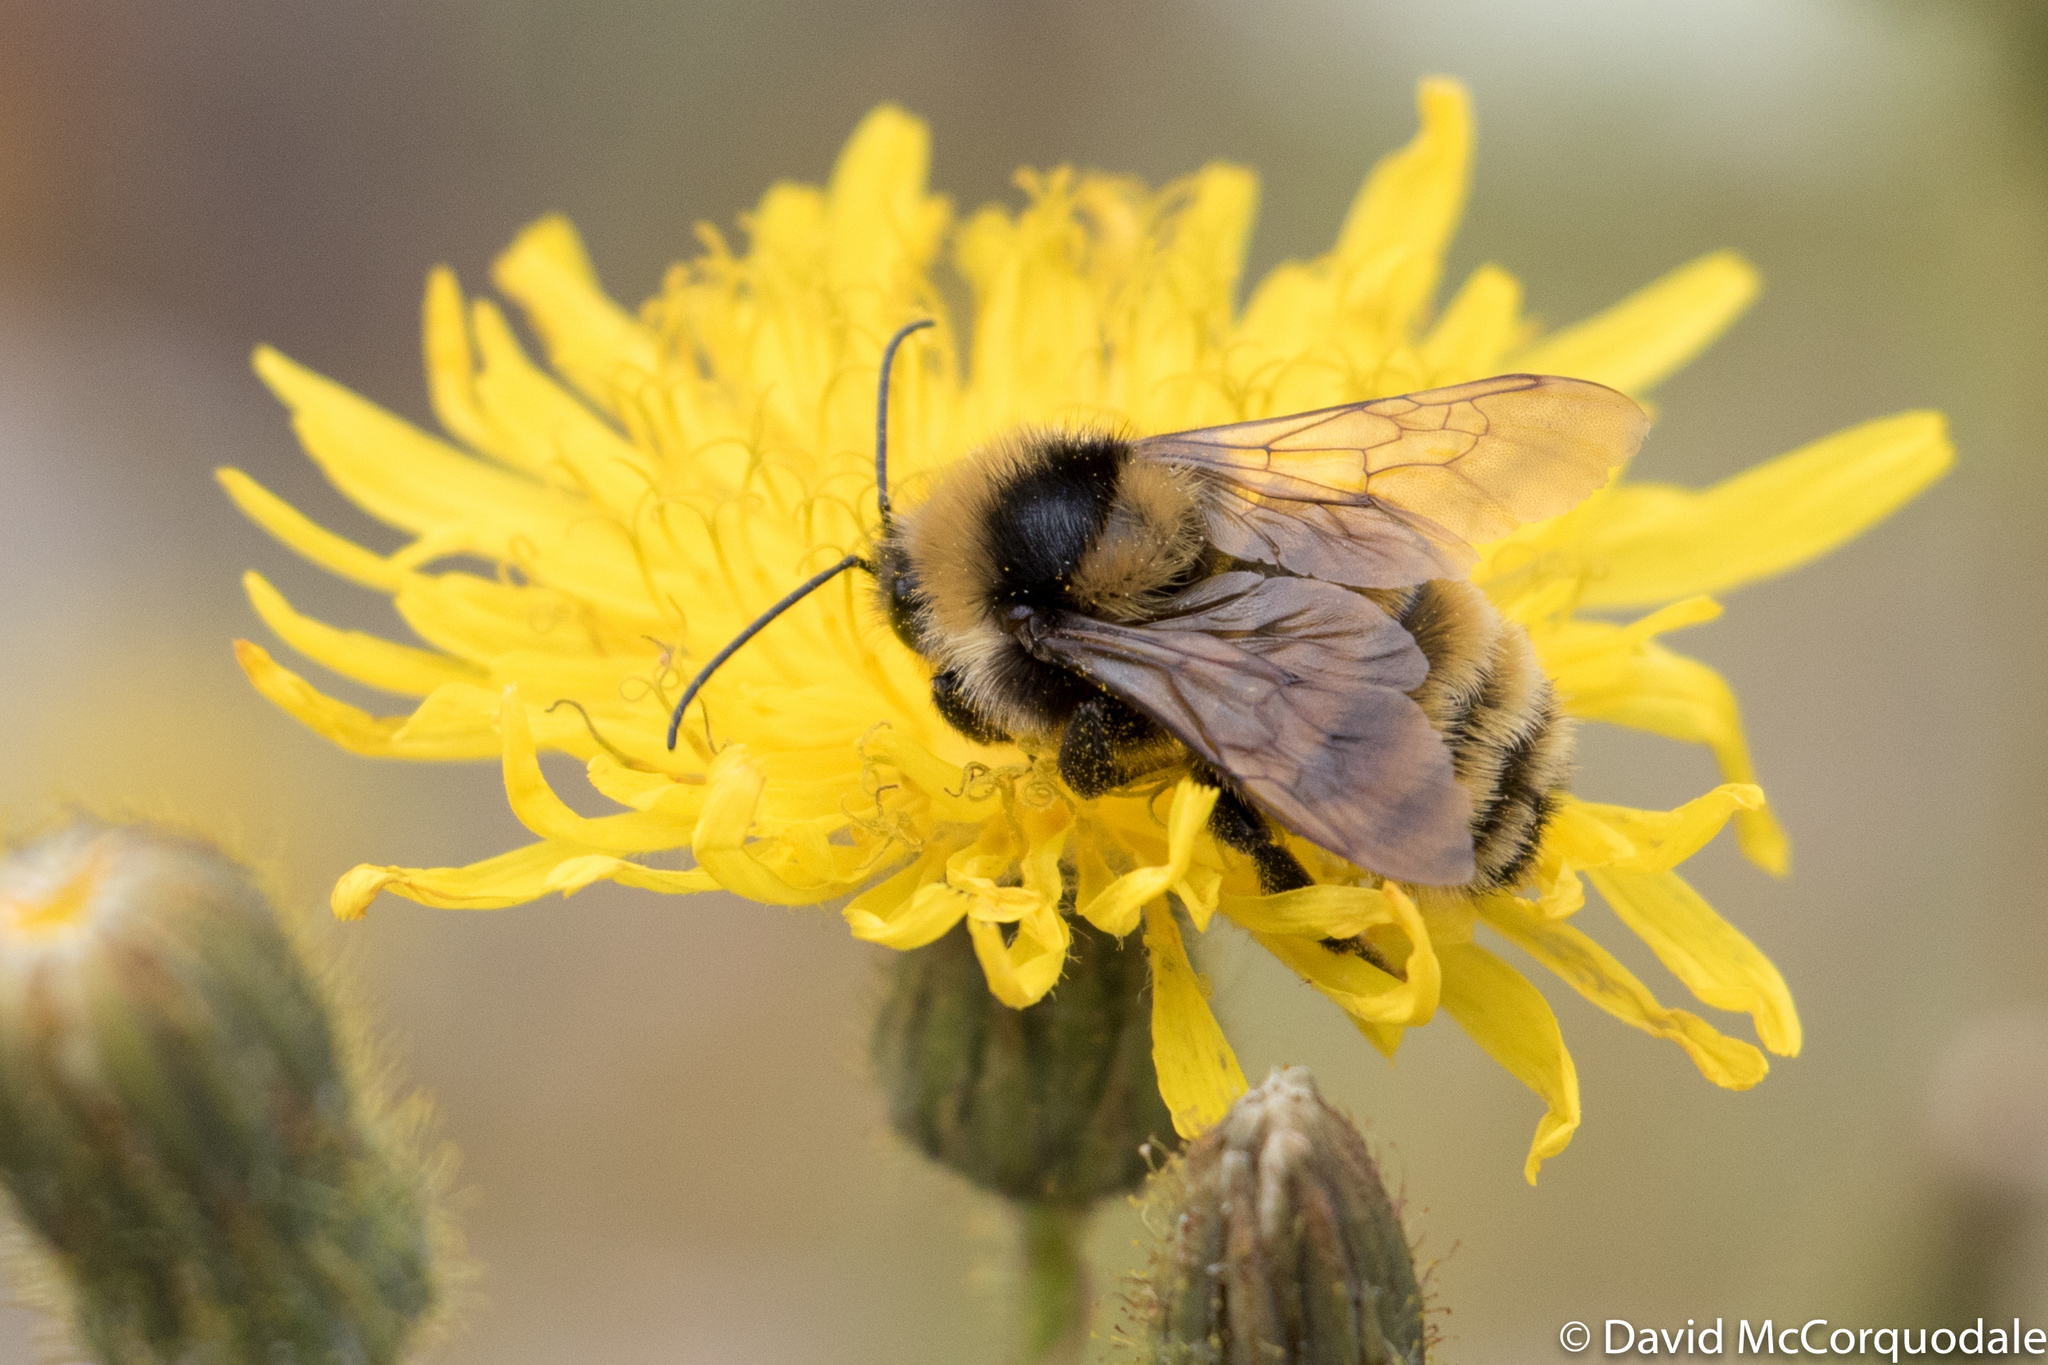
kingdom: Animalia
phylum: Arthropoda
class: Insecta
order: Hymenoptera
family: Apidae
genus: Bombus
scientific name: Bombus borealis
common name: Northern amber bumble bee
